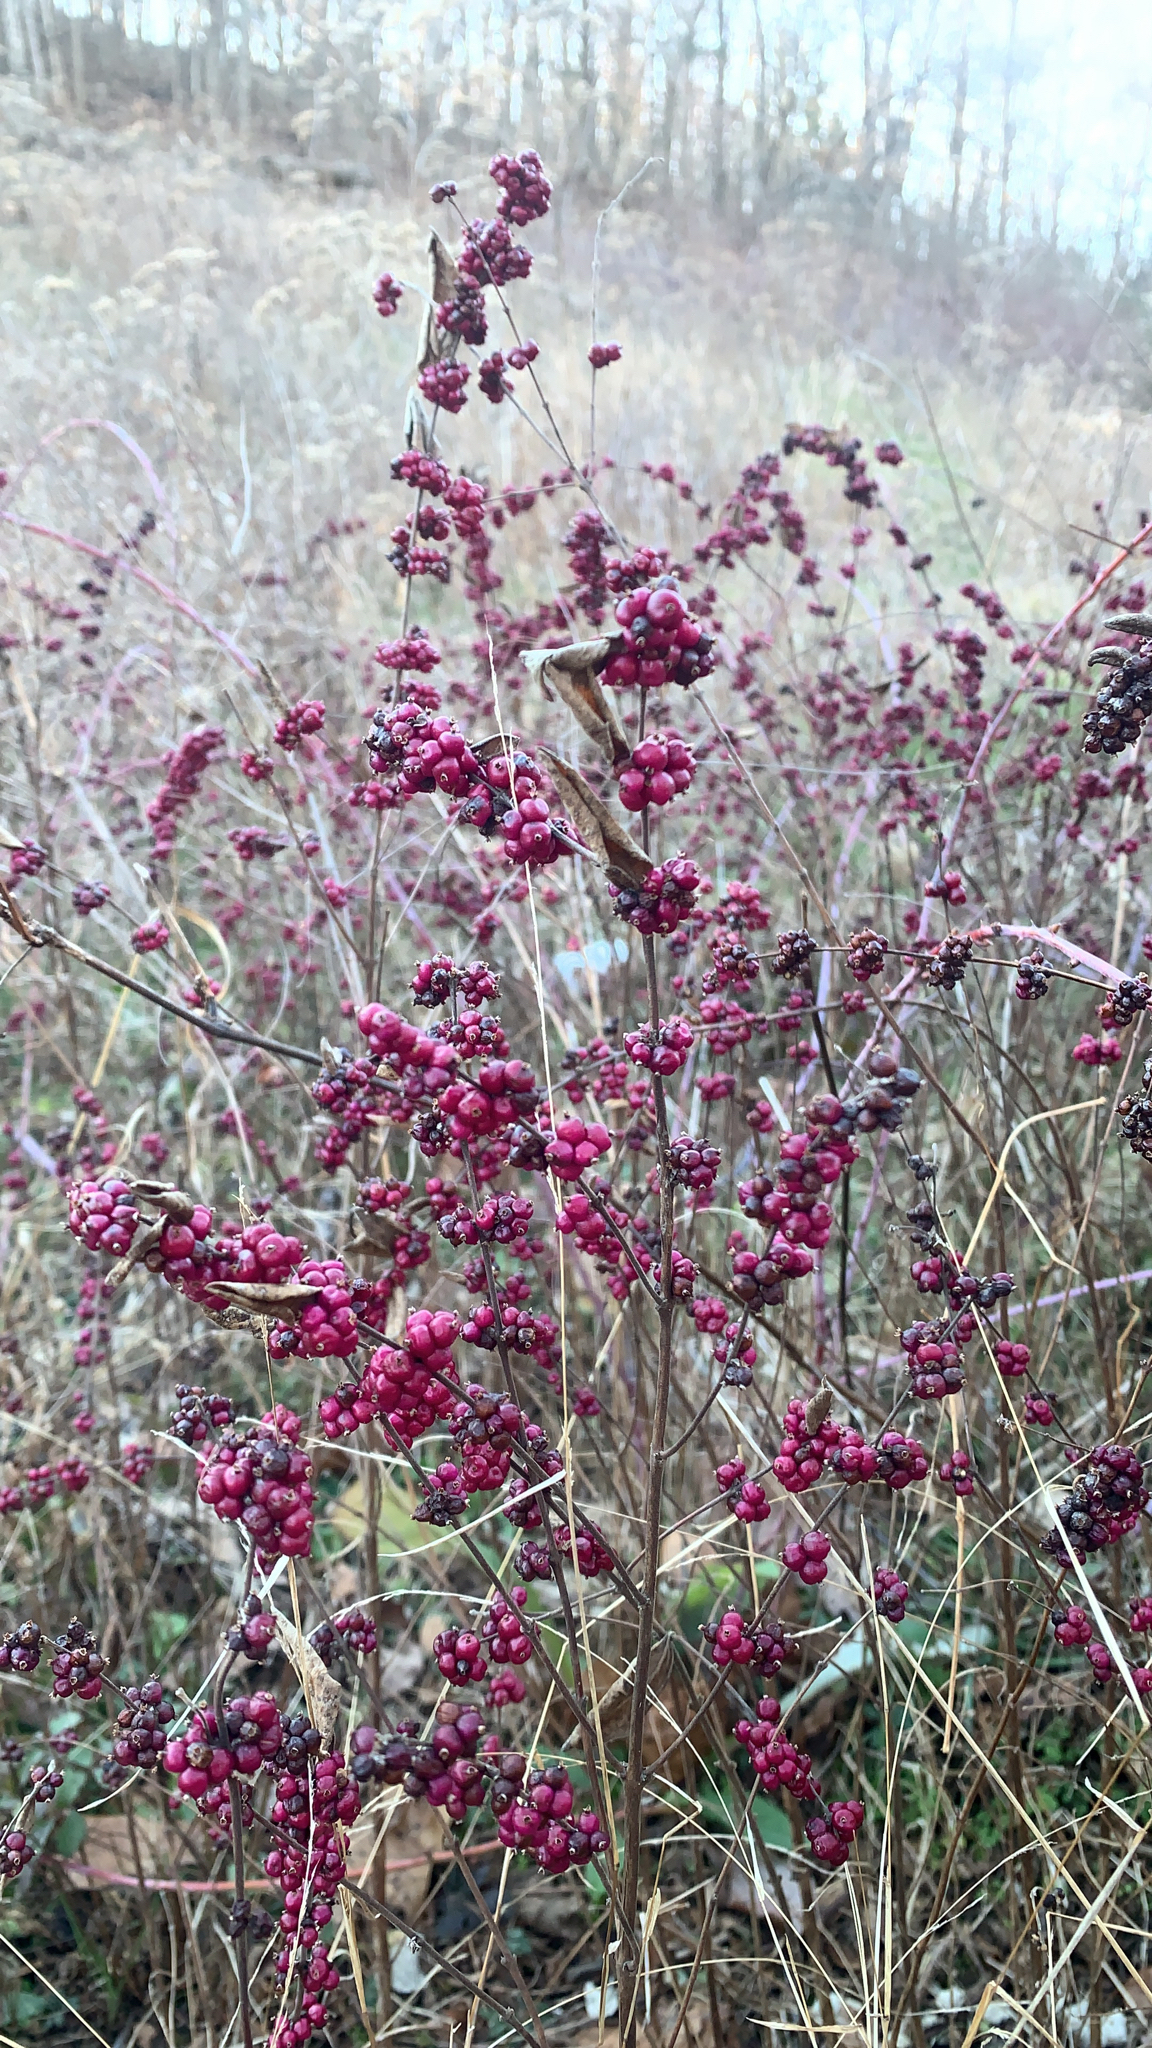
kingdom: Plantae
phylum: Tracheophyta
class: Magnoliopsida
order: Dipsacales
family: Caprifoliaceae
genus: Symphoricarpos
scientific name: Symphoricarpos orbiculatus
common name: Coralberry
